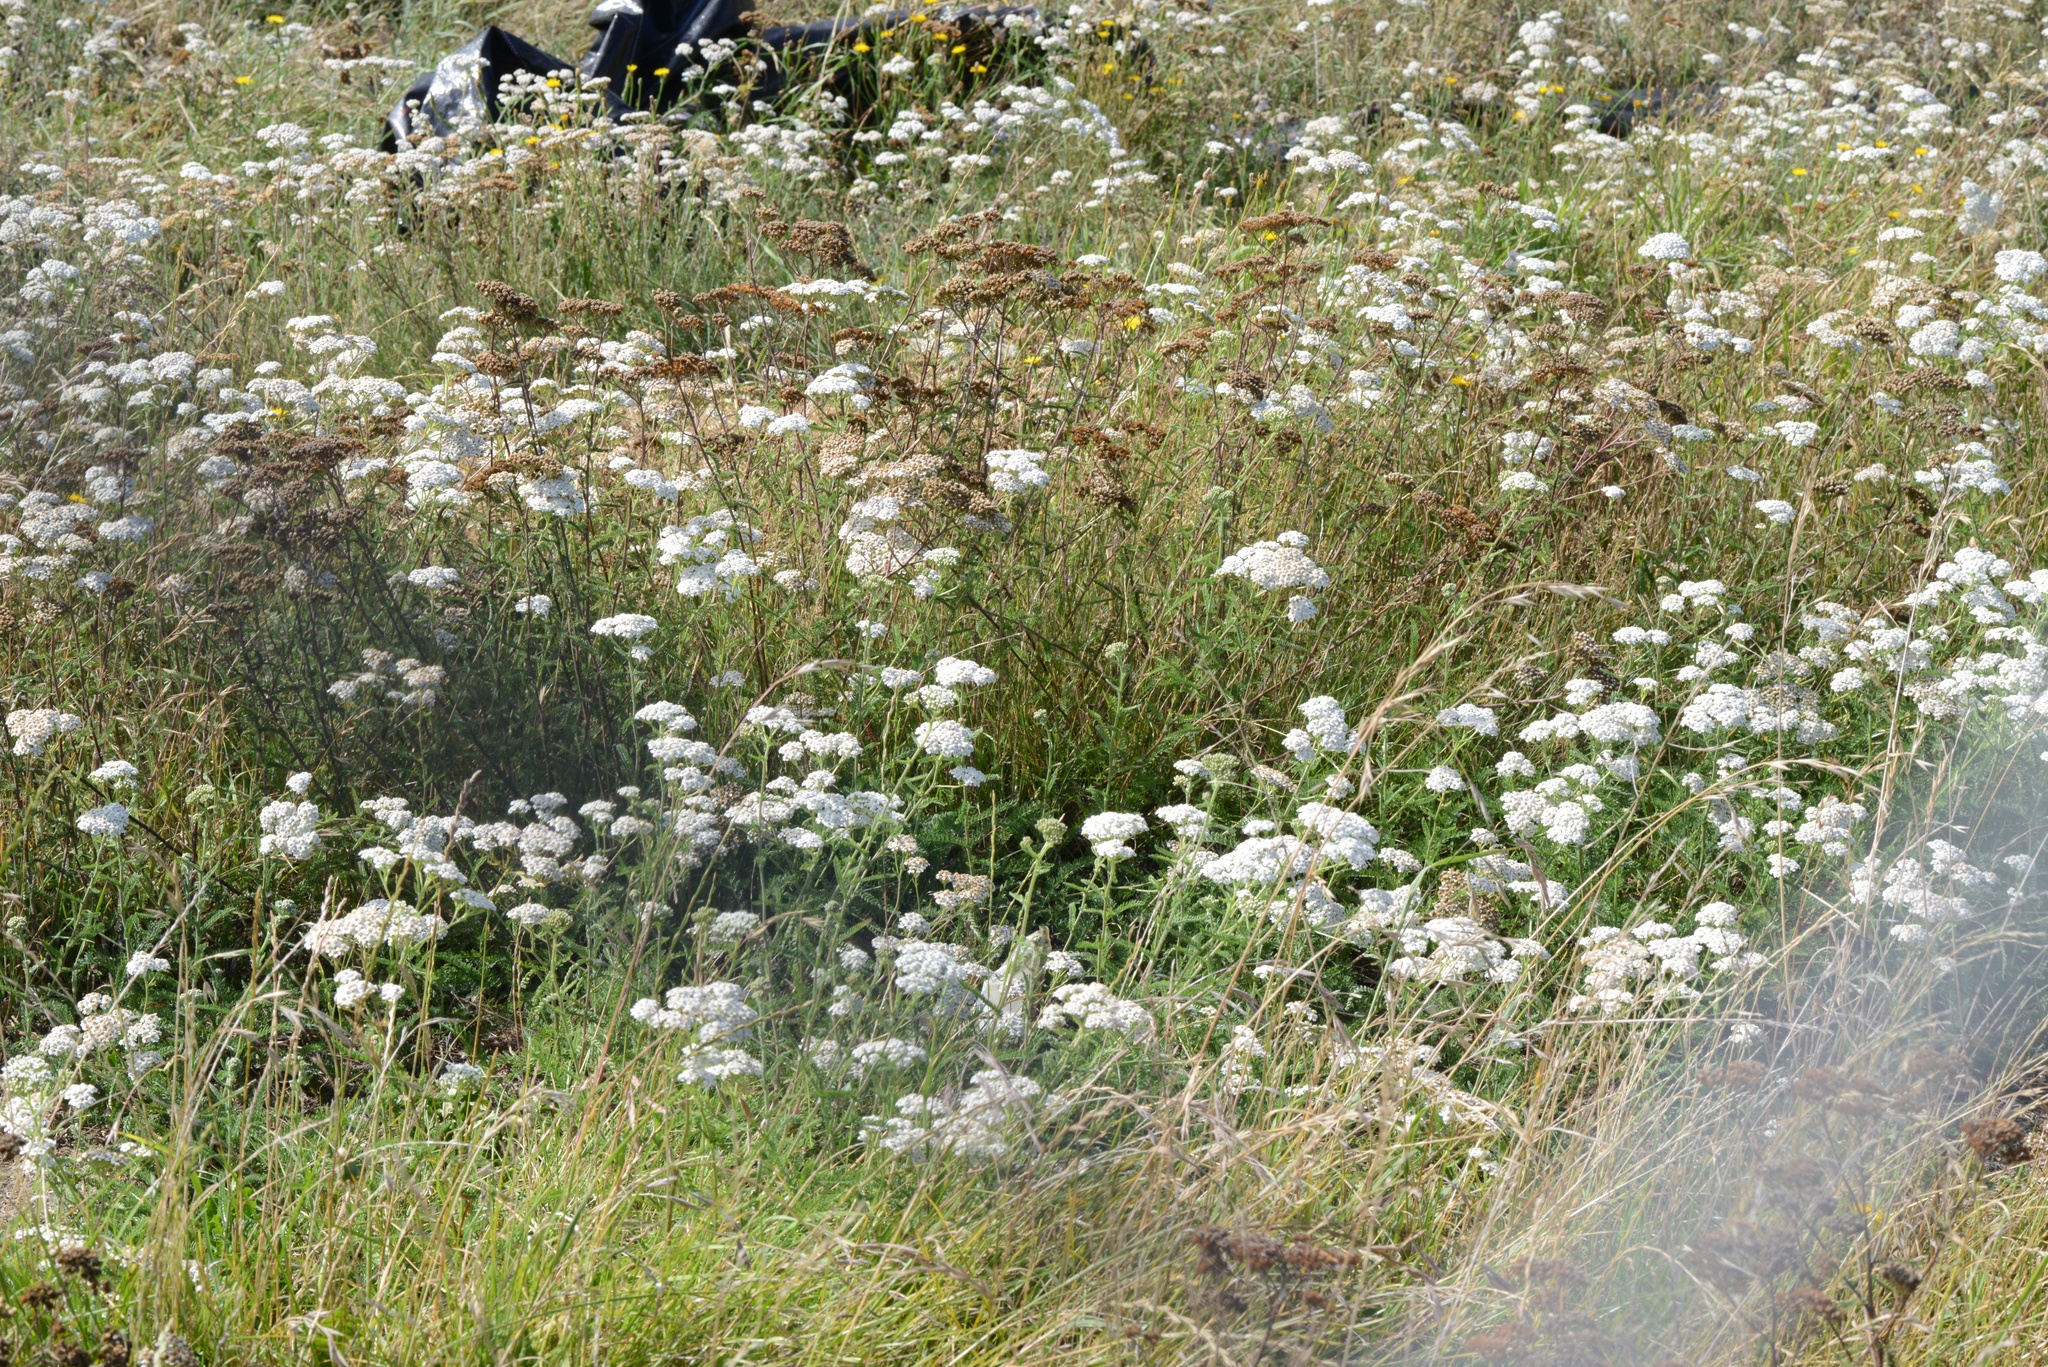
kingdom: Plantae
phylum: Tracheophyta
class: Magnoliopsida
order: Asterales
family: Asteraceae
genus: Achillea
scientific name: Achillea millefolium
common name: Yarrow
